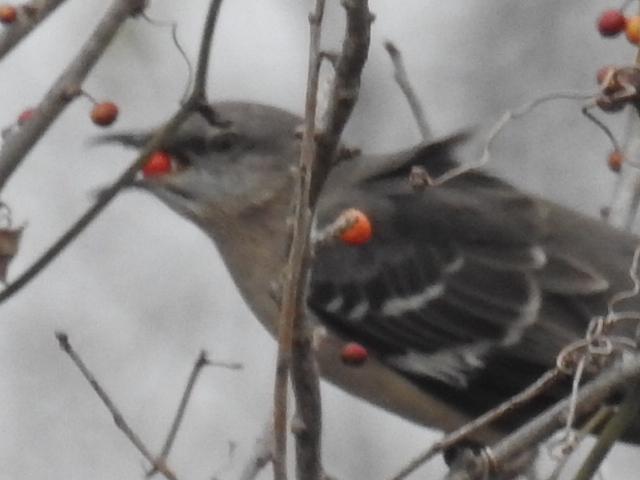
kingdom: Animalia
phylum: Chordata
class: Aves
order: Passeriformes
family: Mimidae
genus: Mimus
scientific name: Mimus polyglottos
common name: Northern mockingbird
